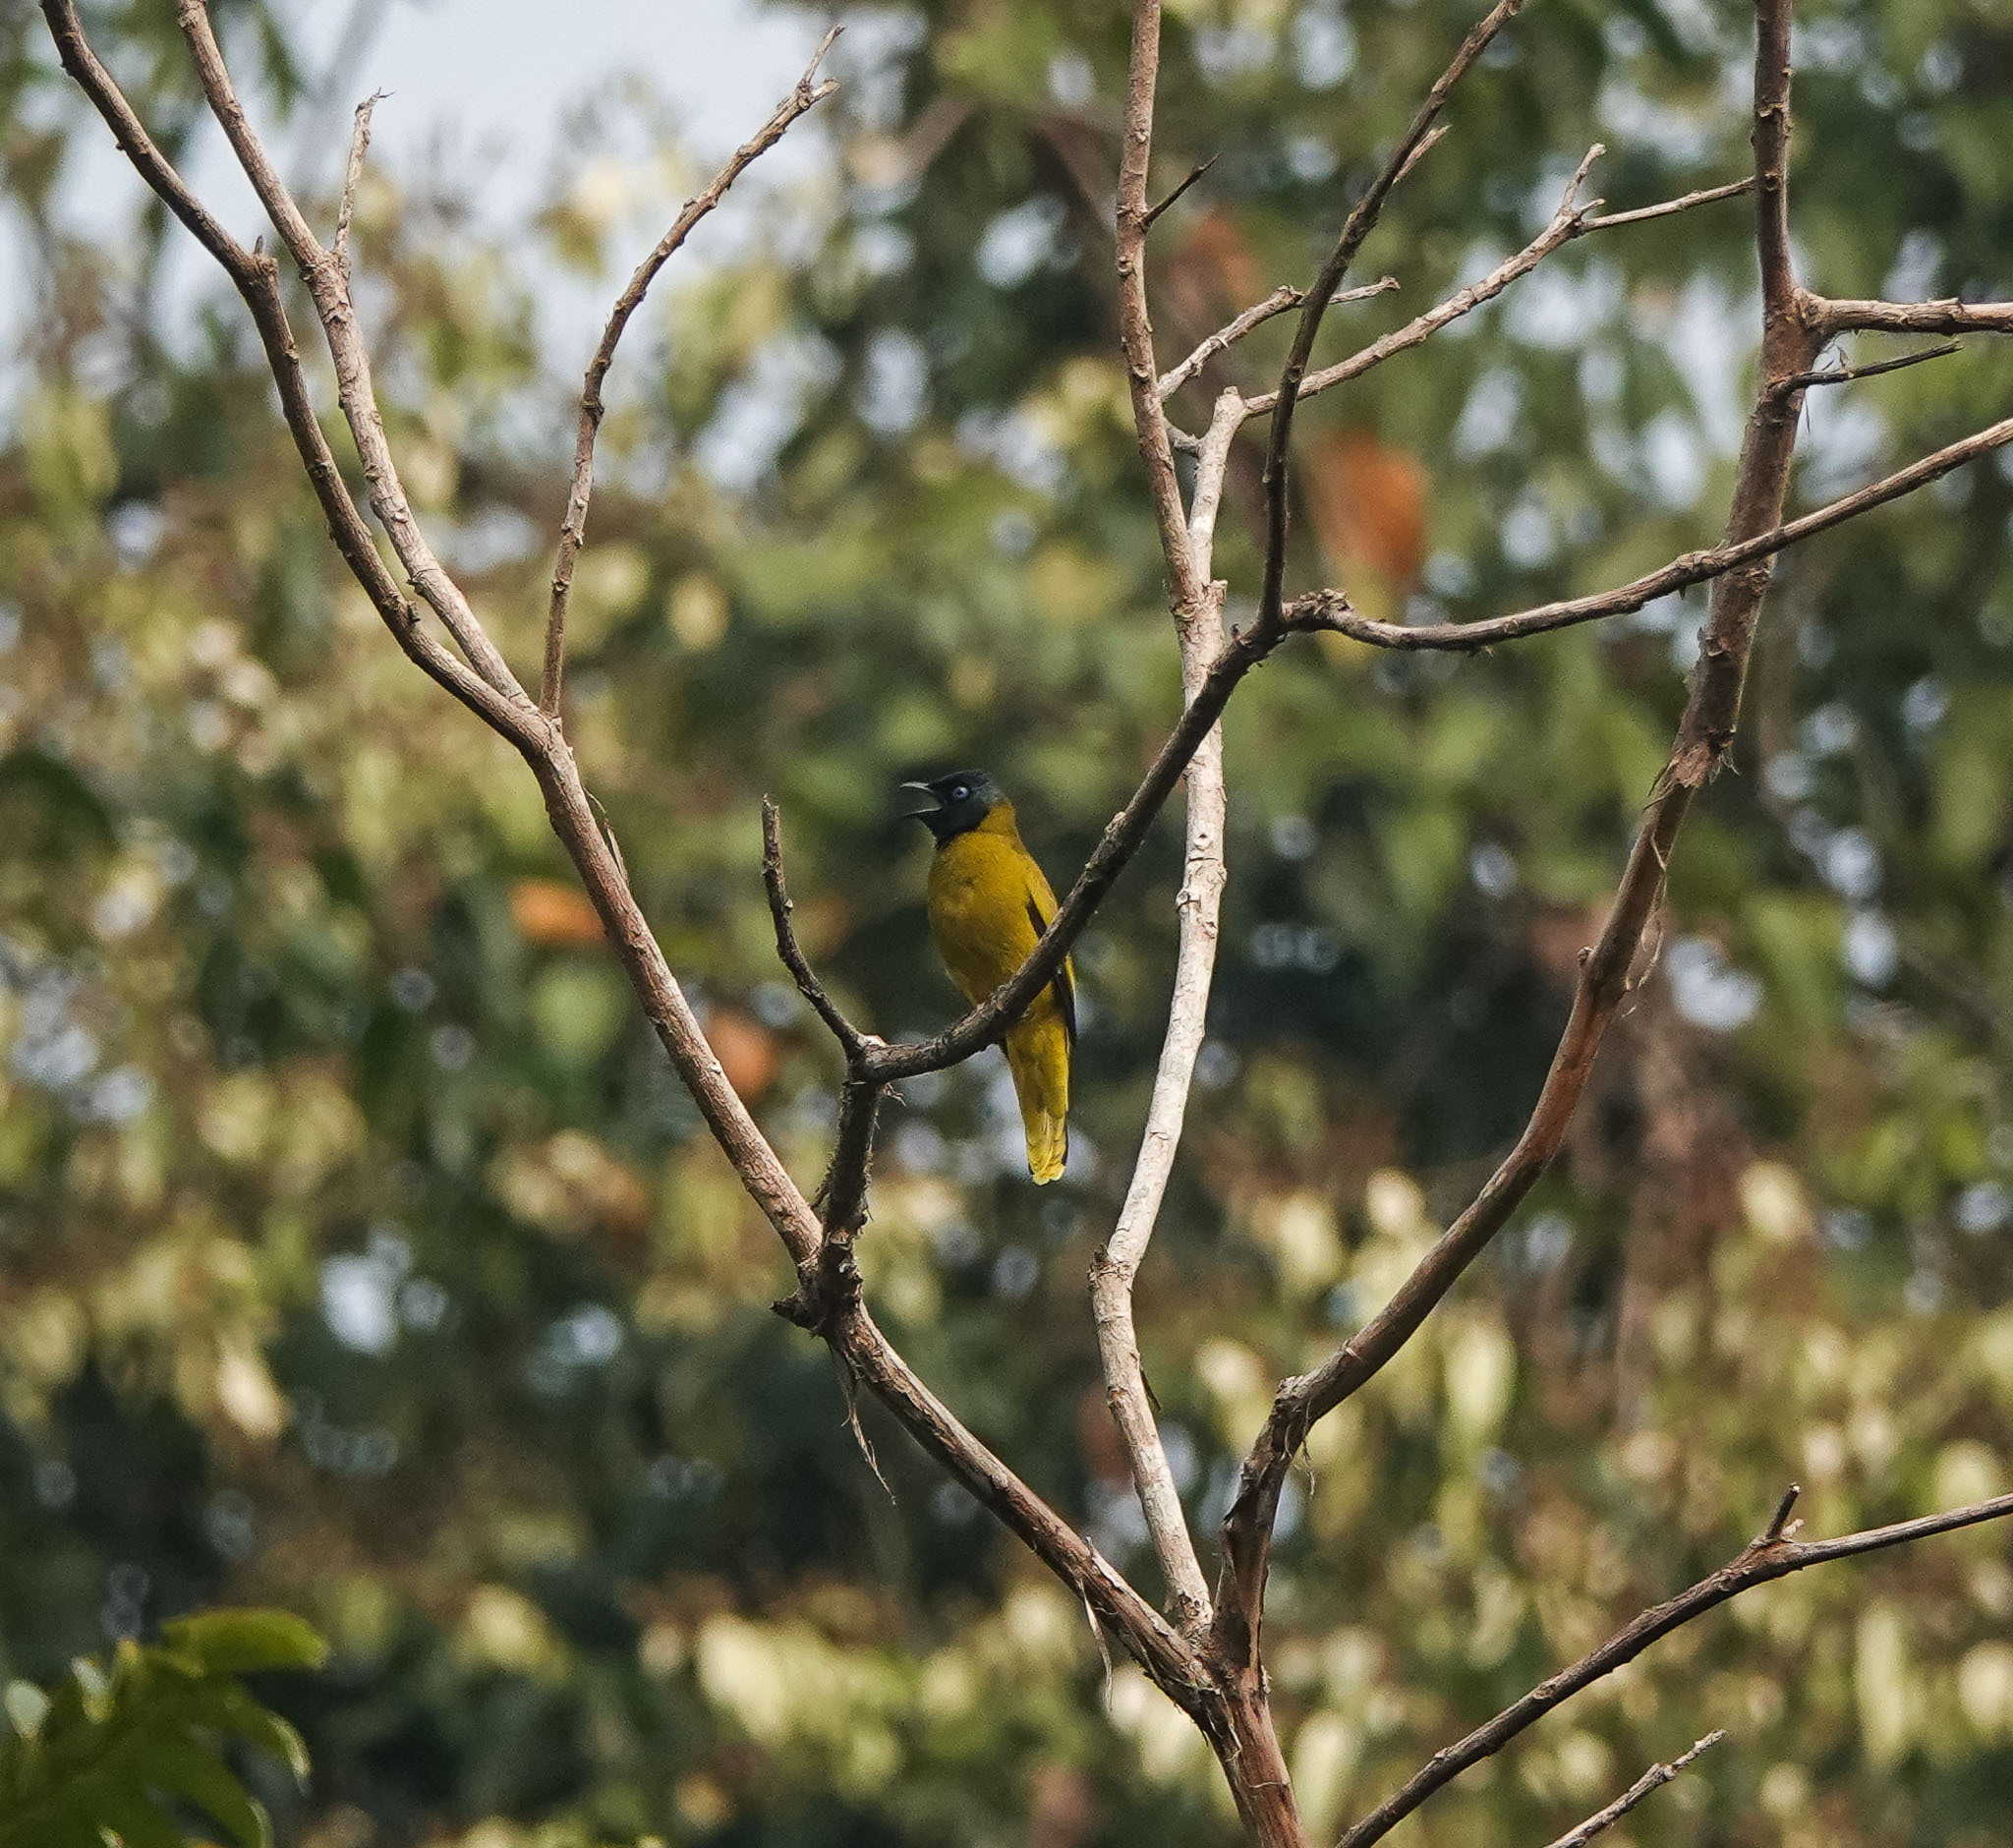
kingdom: Animalia
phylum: Chordata
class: Aves
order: Passeriformes
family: Pycnonotidae
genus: Microtarsus
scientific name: Microtarsus
